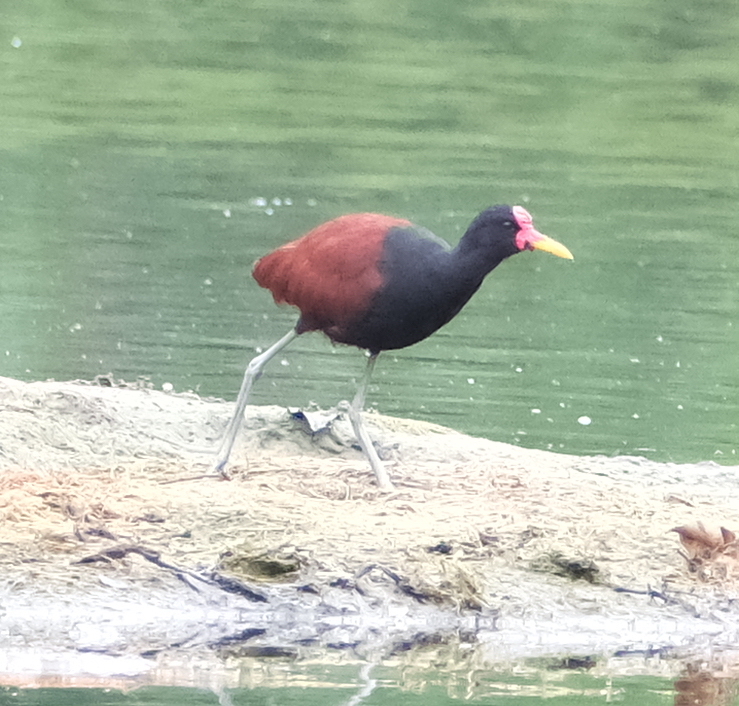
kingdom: Animalia
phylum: Chordata
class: Aves
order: Charadriiformes
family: Jacanidae
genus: Jacana
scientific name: Jacana jacana
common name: Wattled jacana
